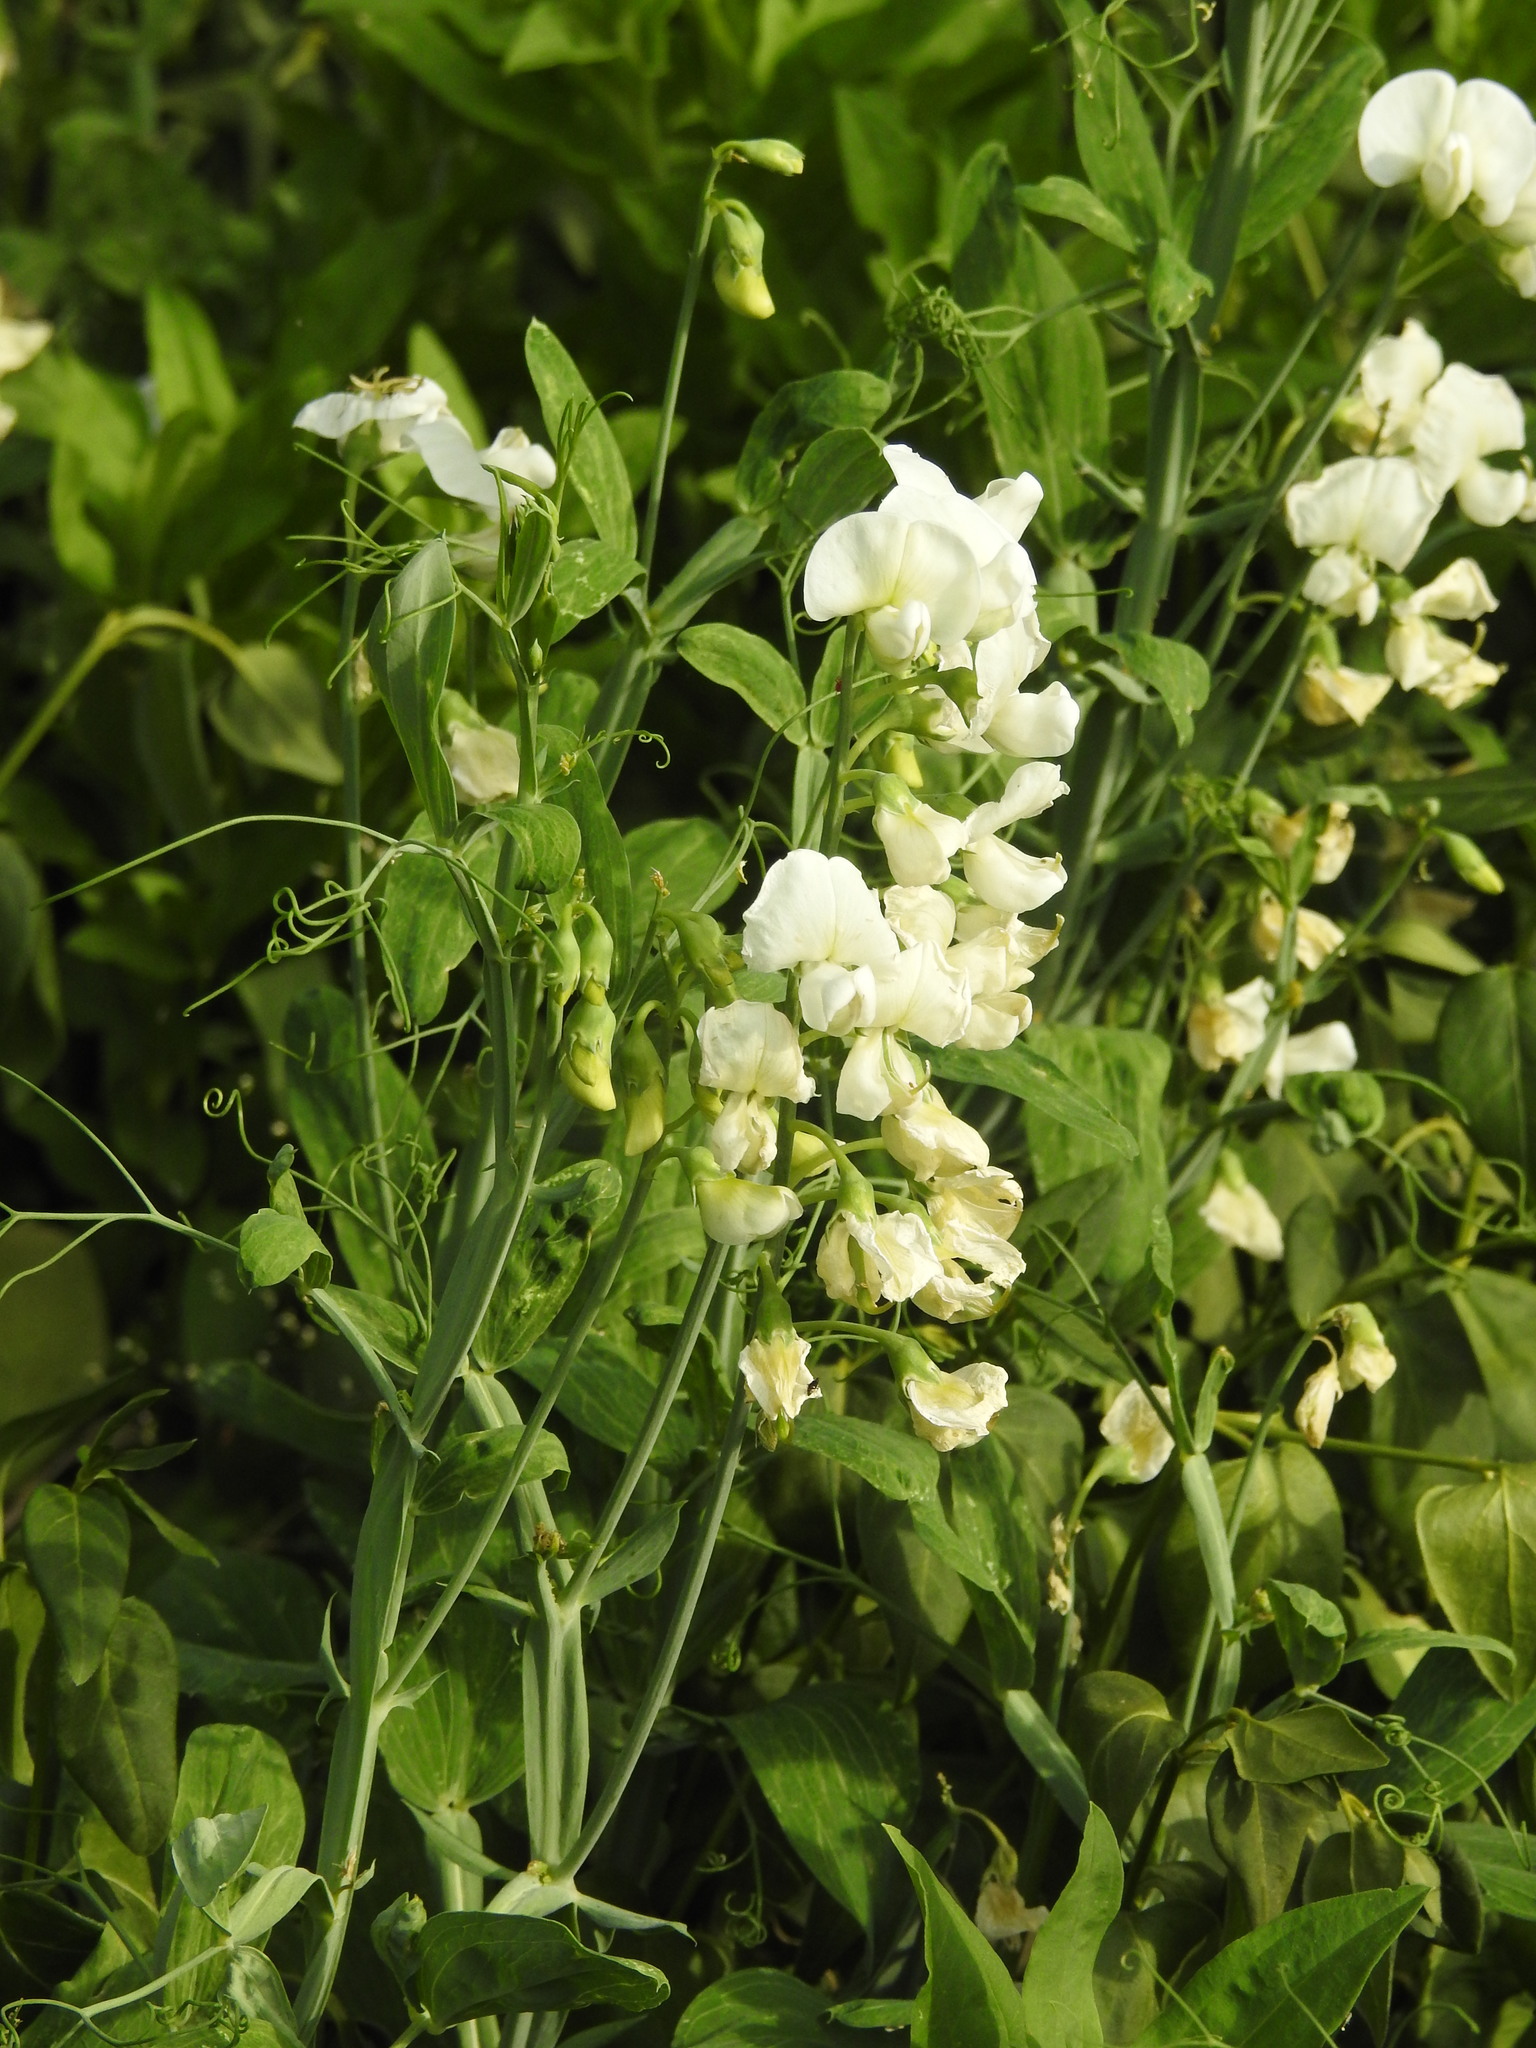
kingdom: Plantae
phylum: Tracheophyta
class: Magnoliopsida
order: Fabales
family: Fabaceae
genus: Lathyrus
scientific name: Lathyrus lanszwertii
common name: Lanszwert's vetchling
